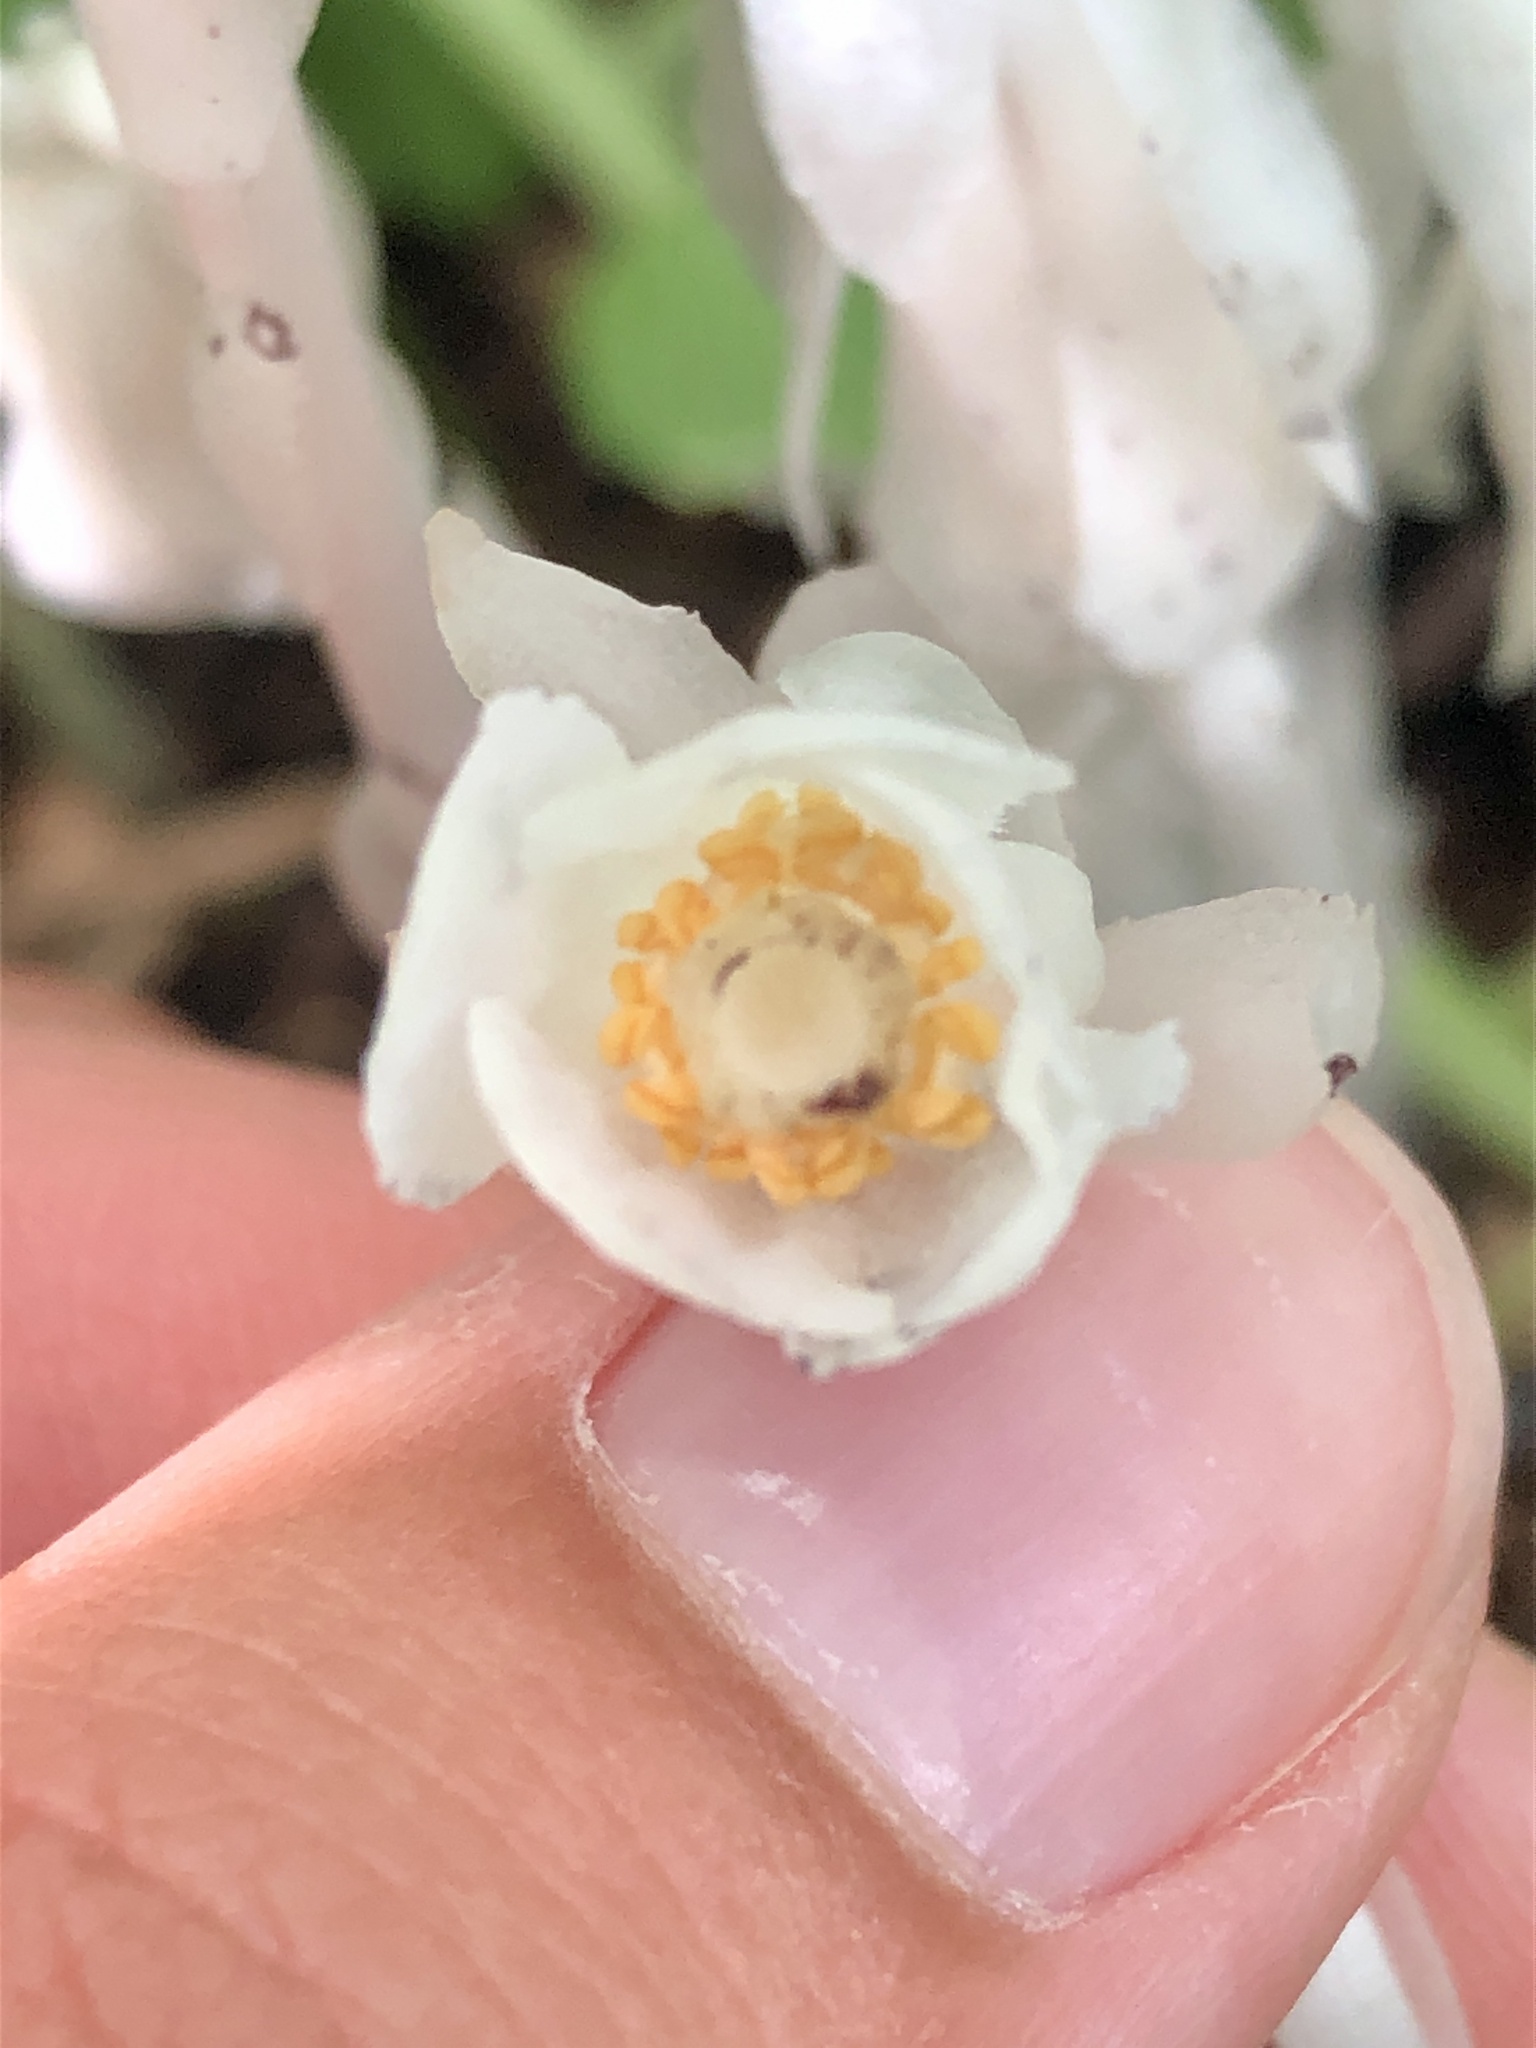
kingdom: Plantae
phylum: Tracheophyta
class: Magnoliopsida
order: Ericales
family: Ericaceae
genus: Monotropa
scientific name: Monotropa uniflora
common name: Convulsion root
